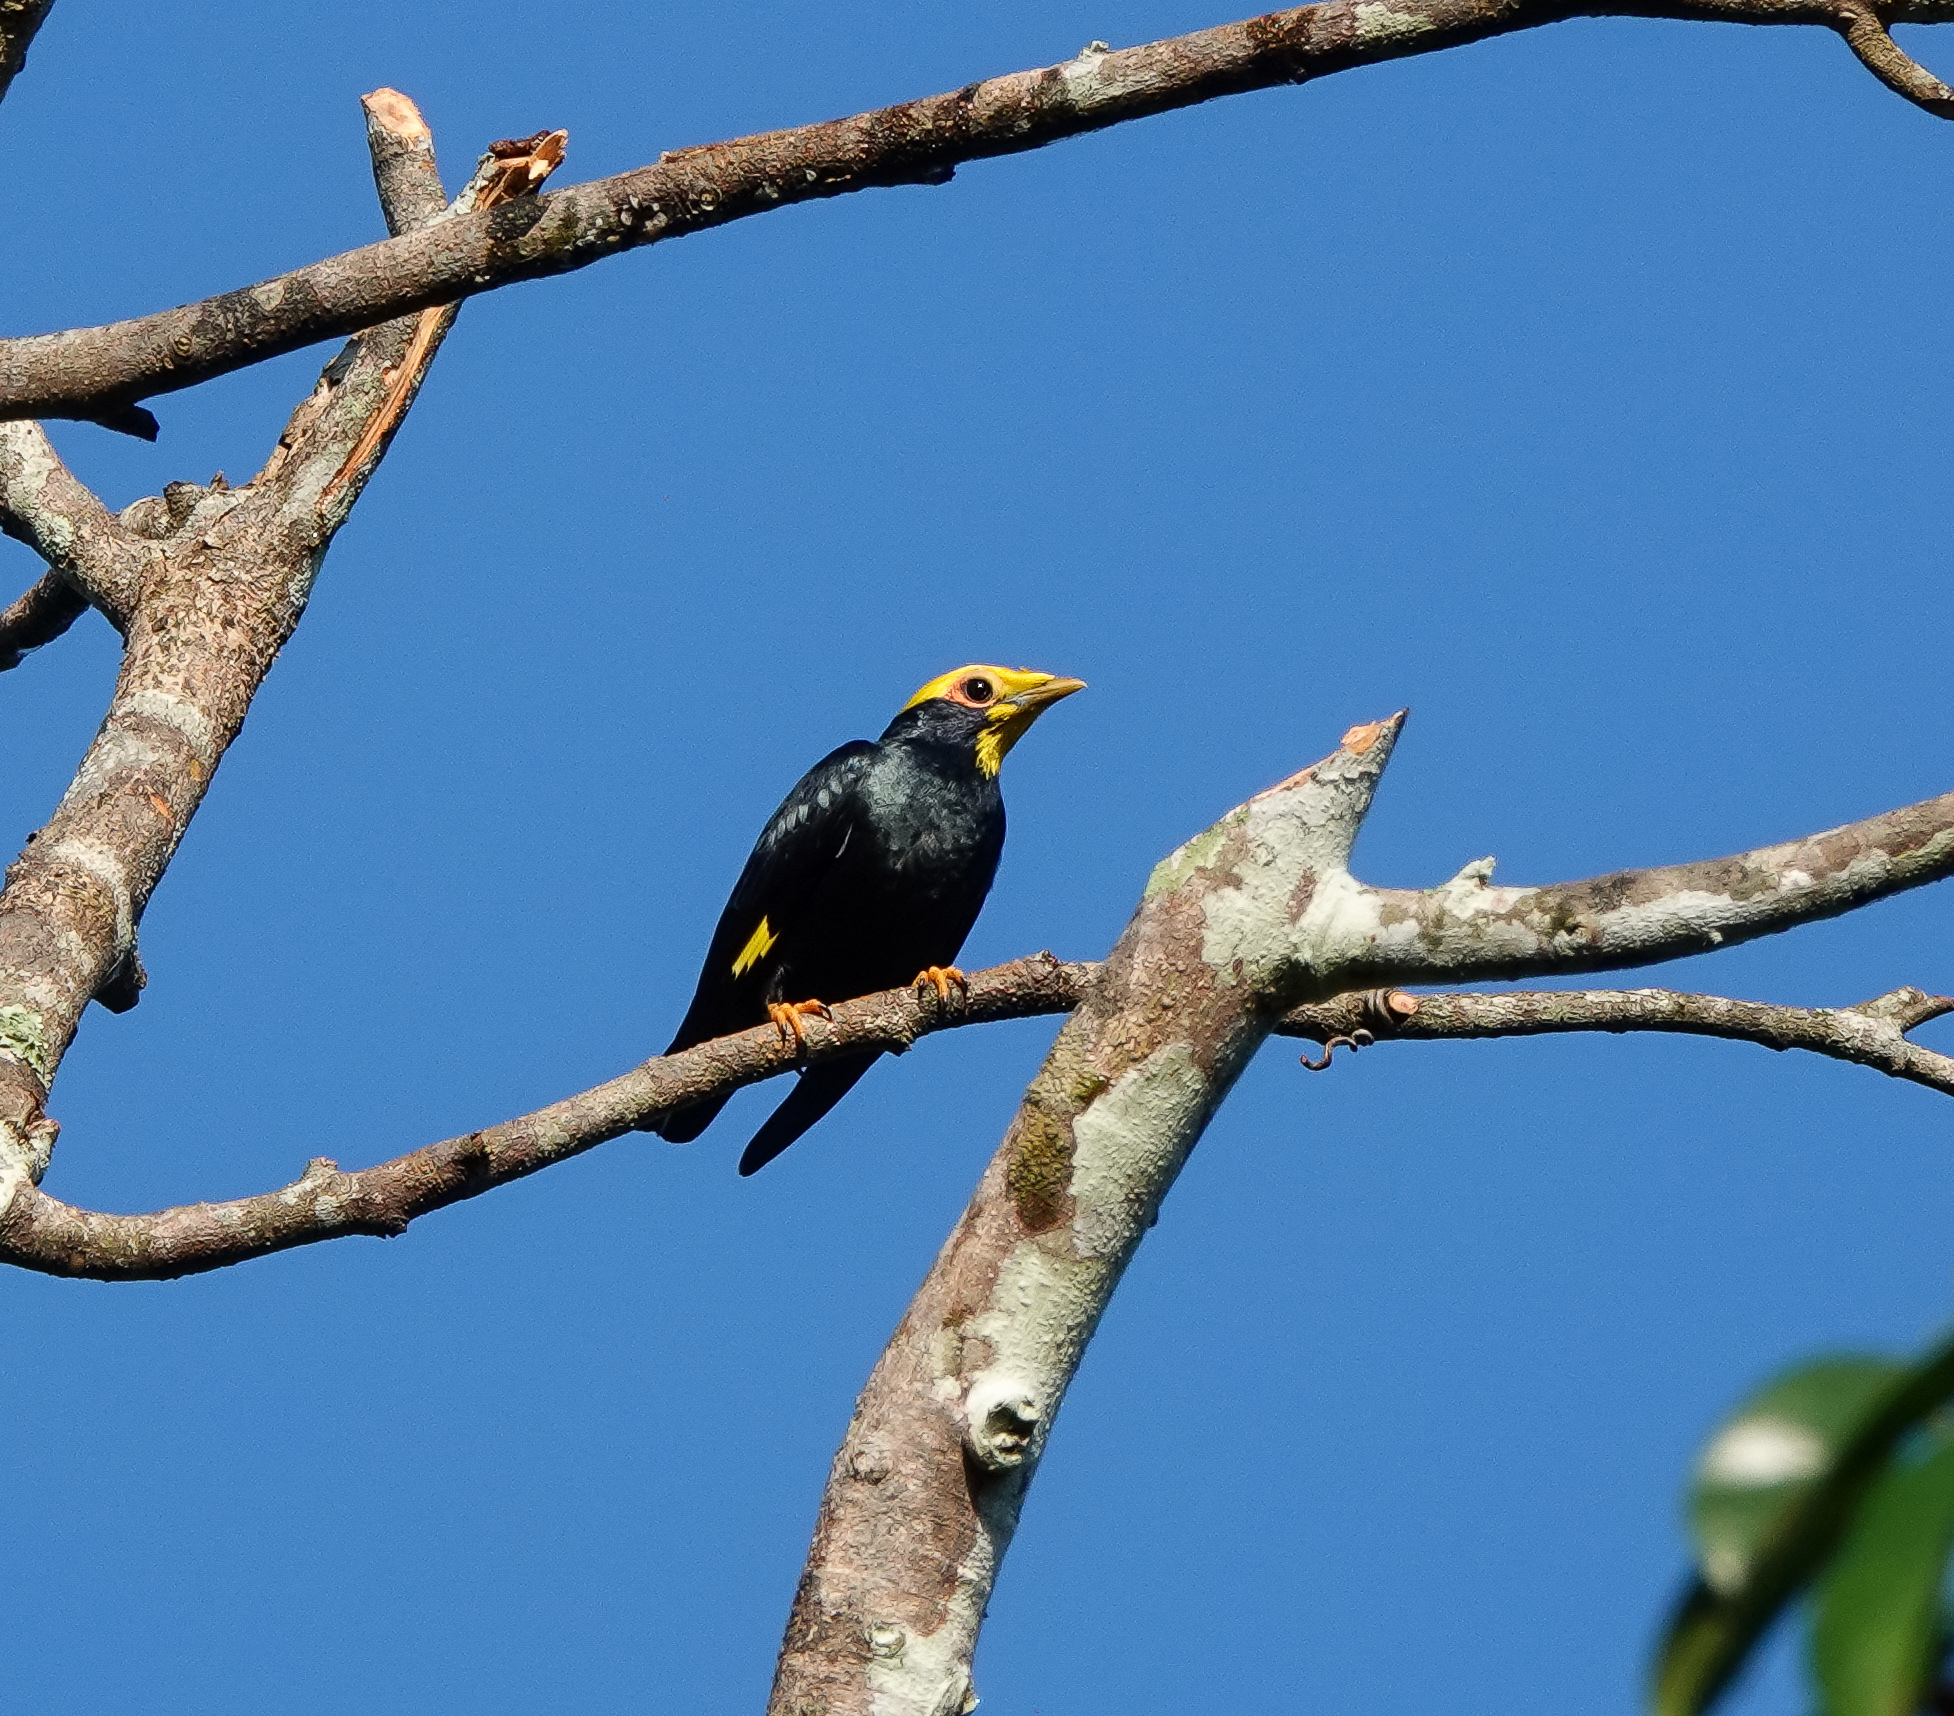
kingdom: Animalia
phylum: Chordata
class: Aves
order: Passeriformes
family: Sturnidae
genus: Ampeliceps
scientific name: Ampeliceps coronatus
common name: Golden-crested myna
